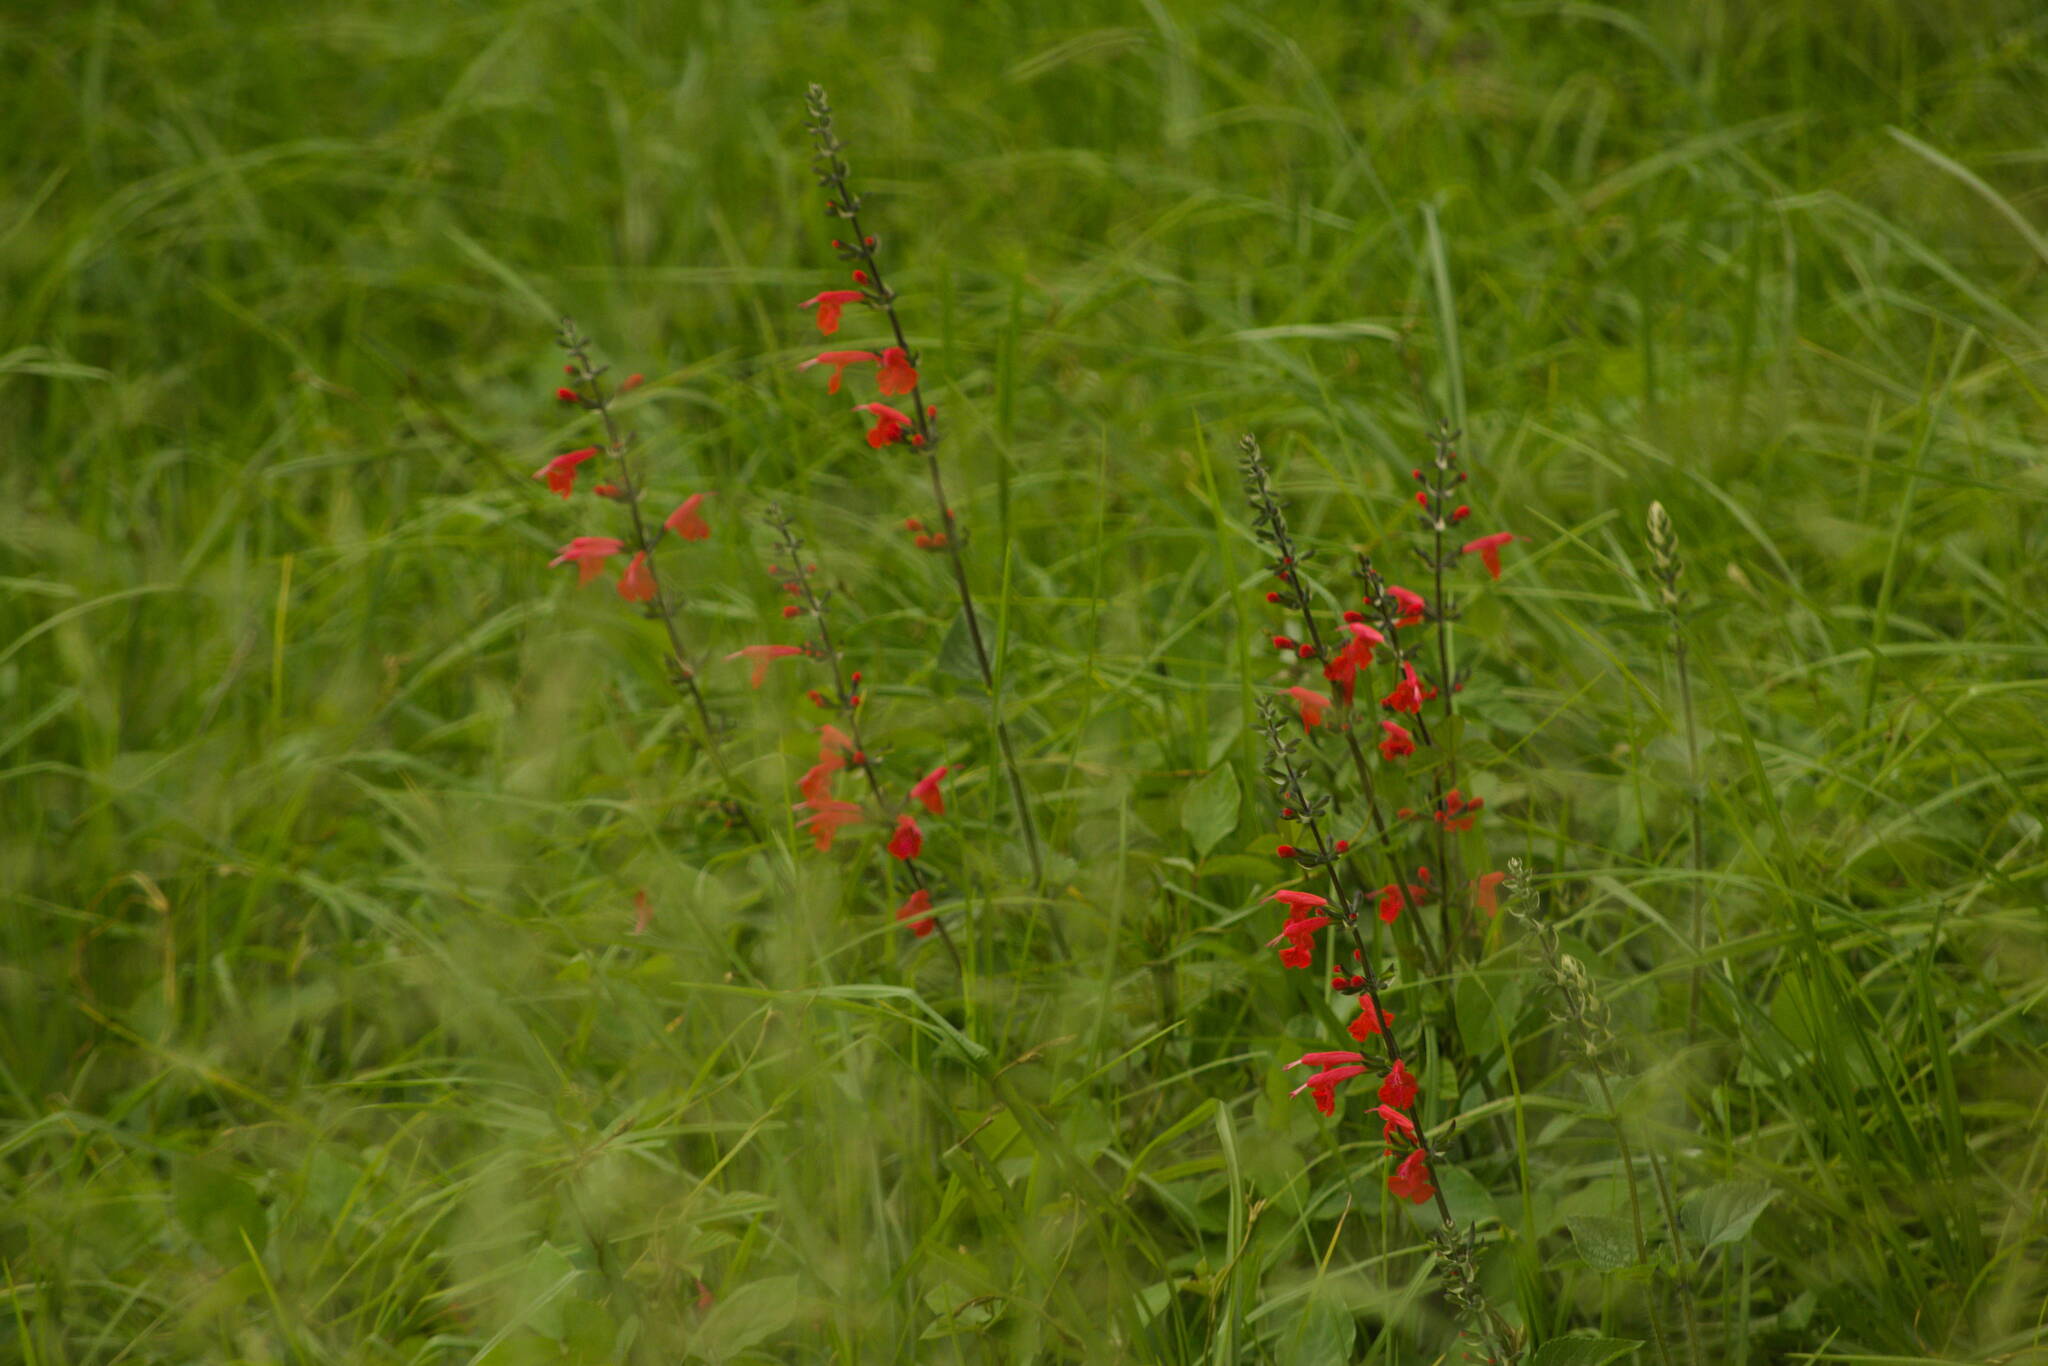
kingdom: Plantae
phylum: Tracheophyta
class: Magnoliopsida
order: Lamiales
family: Lamiaceae
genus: Salvia
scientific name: Salvia coccinea
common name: Blood sage
